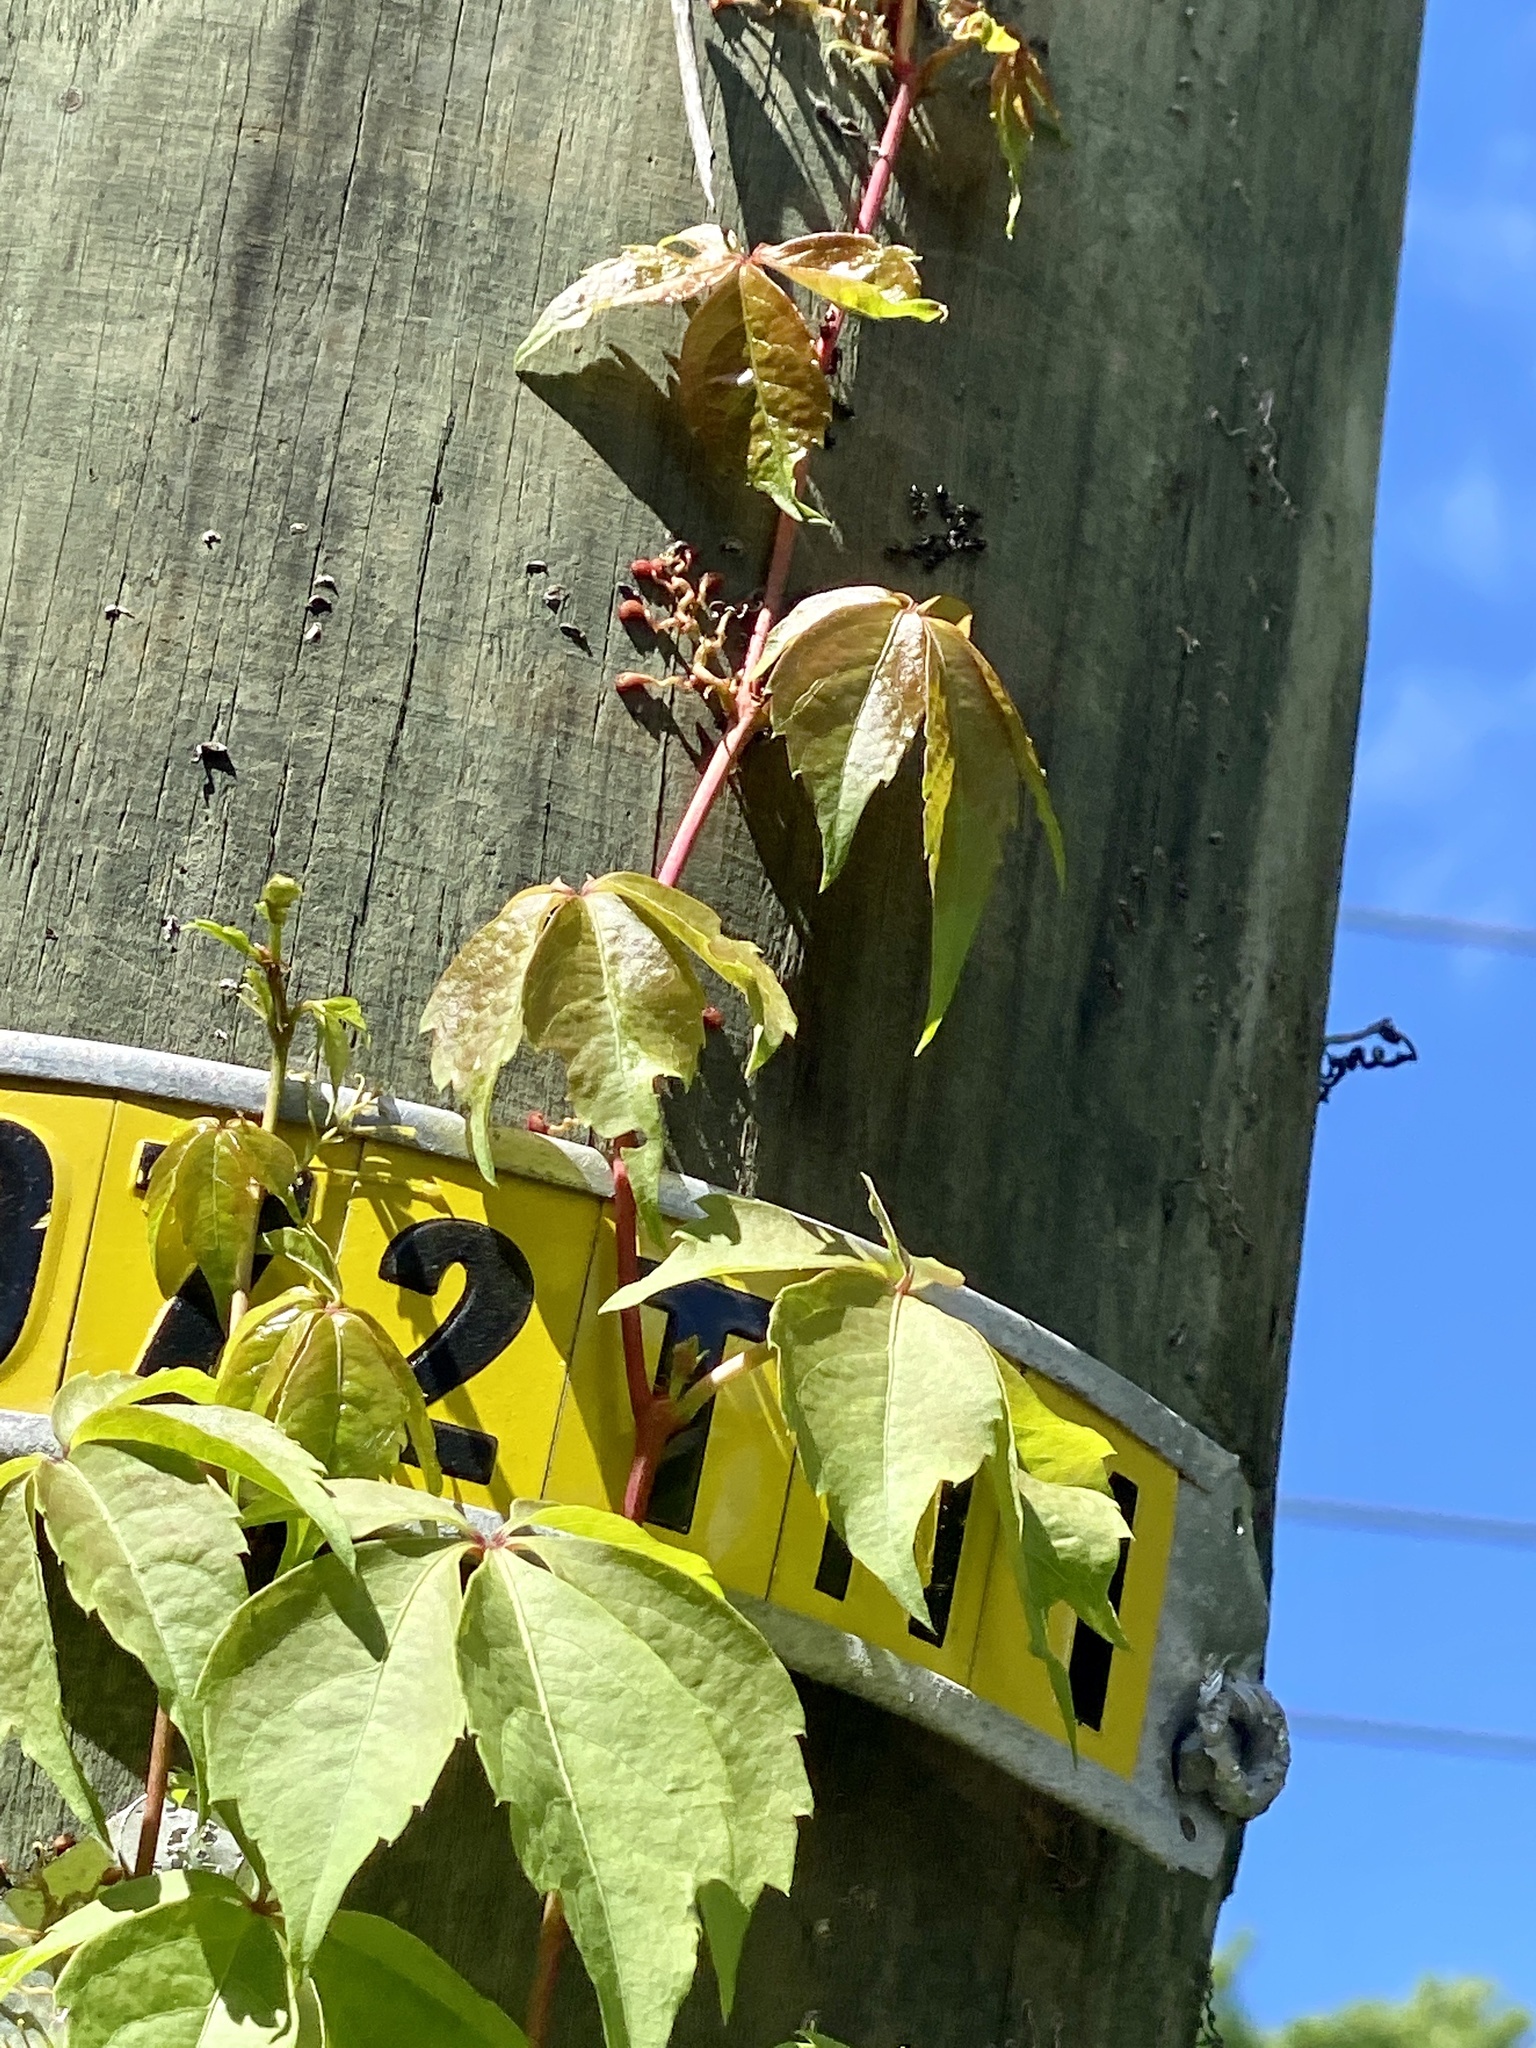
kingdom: Plantae
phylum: Tracheophyta
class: Magnoliopsida
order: Vitales
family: Vitaceae
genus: Parthenocissus
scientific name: Parthenocissus quinquefolia
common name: Virginia-creeper
